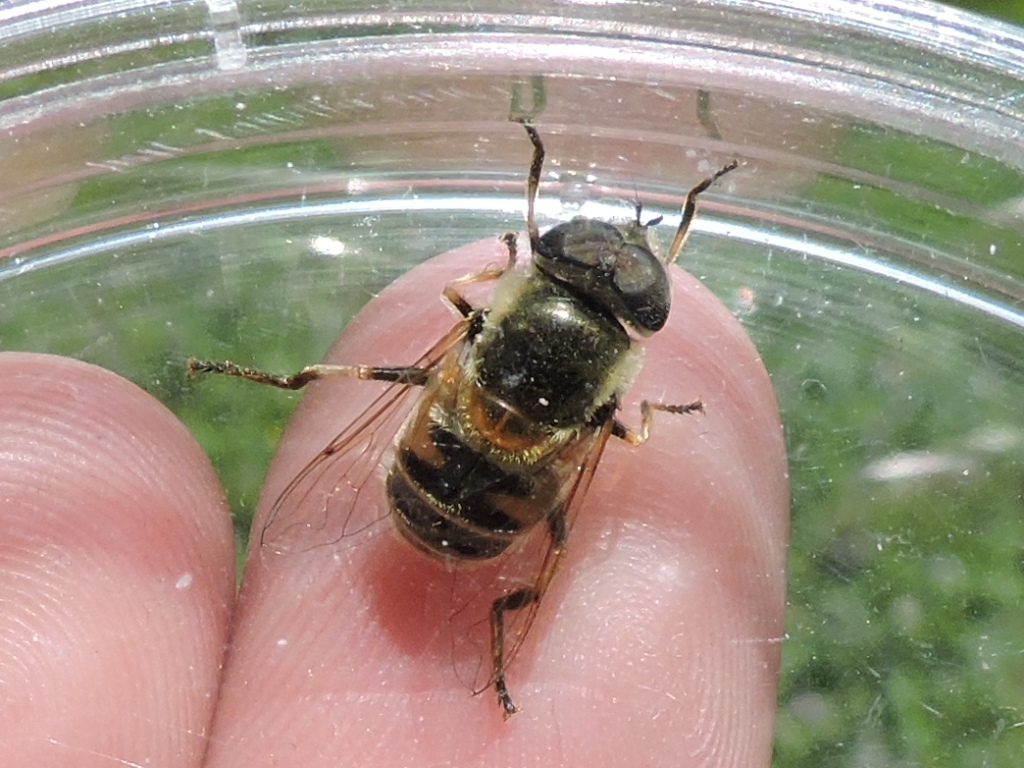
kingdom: Animalia
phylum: Arthropoda
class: Insecta
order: Diptera
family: Syrphidae
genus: Eristalis
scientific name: Eristalis stipator
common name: Yellow-shouldered drone fly
